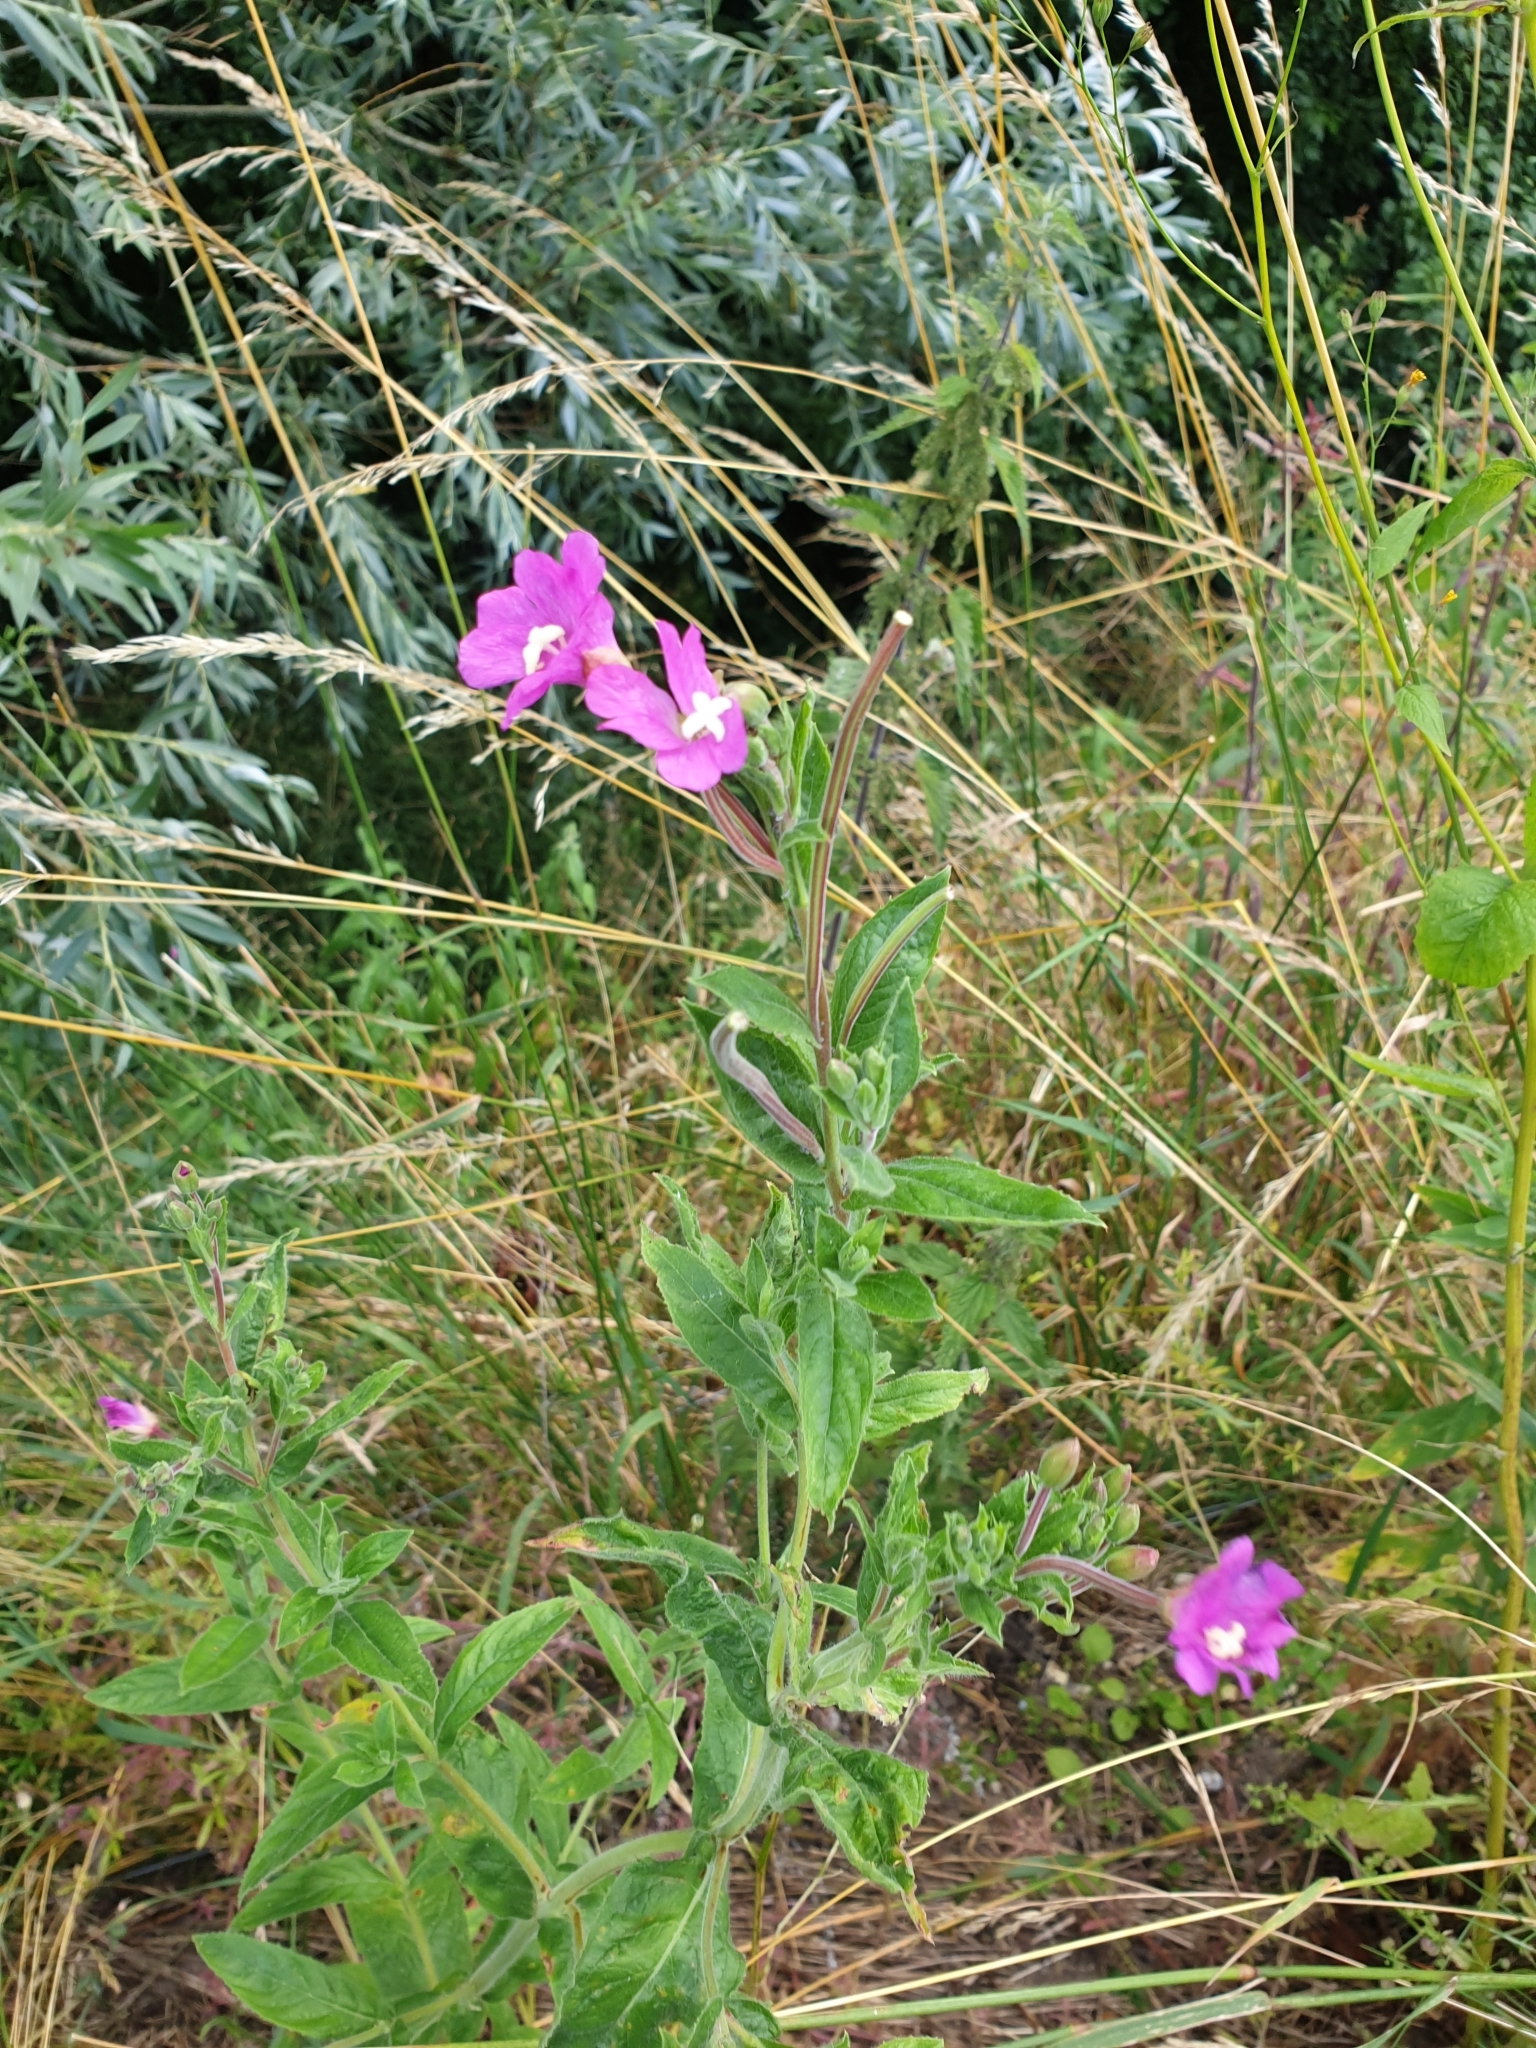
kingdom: Plantae
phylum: Tracheophyta
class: Magnoliopsida
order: Myrtales
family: Onagraceae
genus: Epilobium
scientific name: Epilobium hirsutum
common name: Great willowherb
